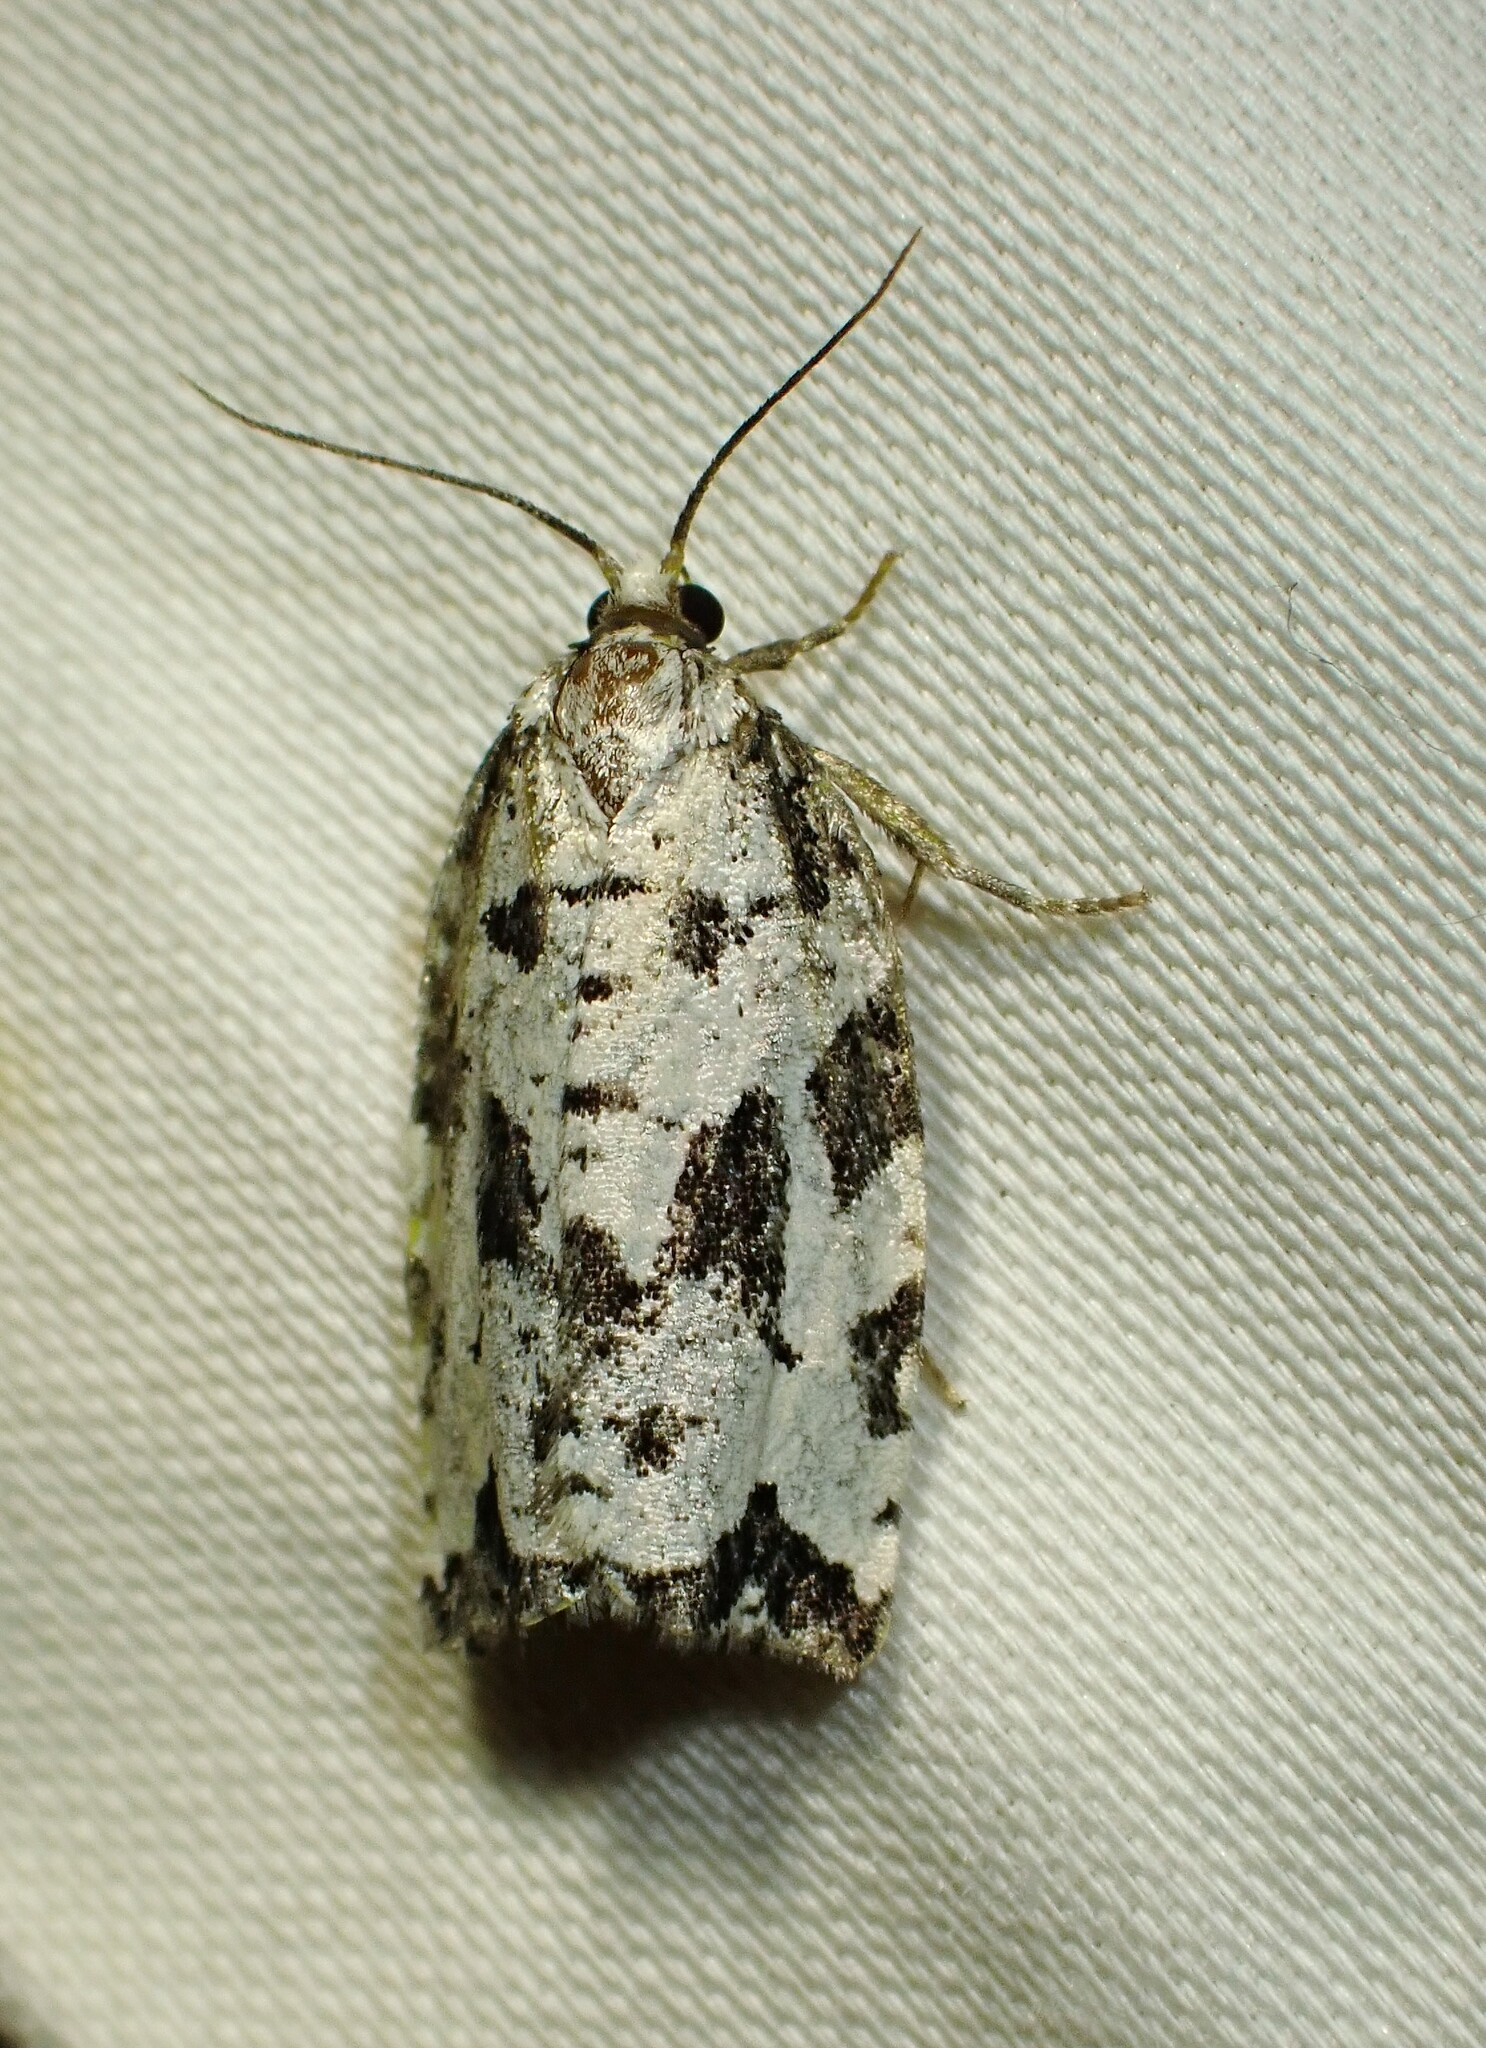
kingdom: Animalia
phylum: Arthropoda
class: Insecta
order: Lepidoptera
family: Tortricidae
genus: Archips
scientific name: Archips dissitana
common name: Boldly-marked archips moth
